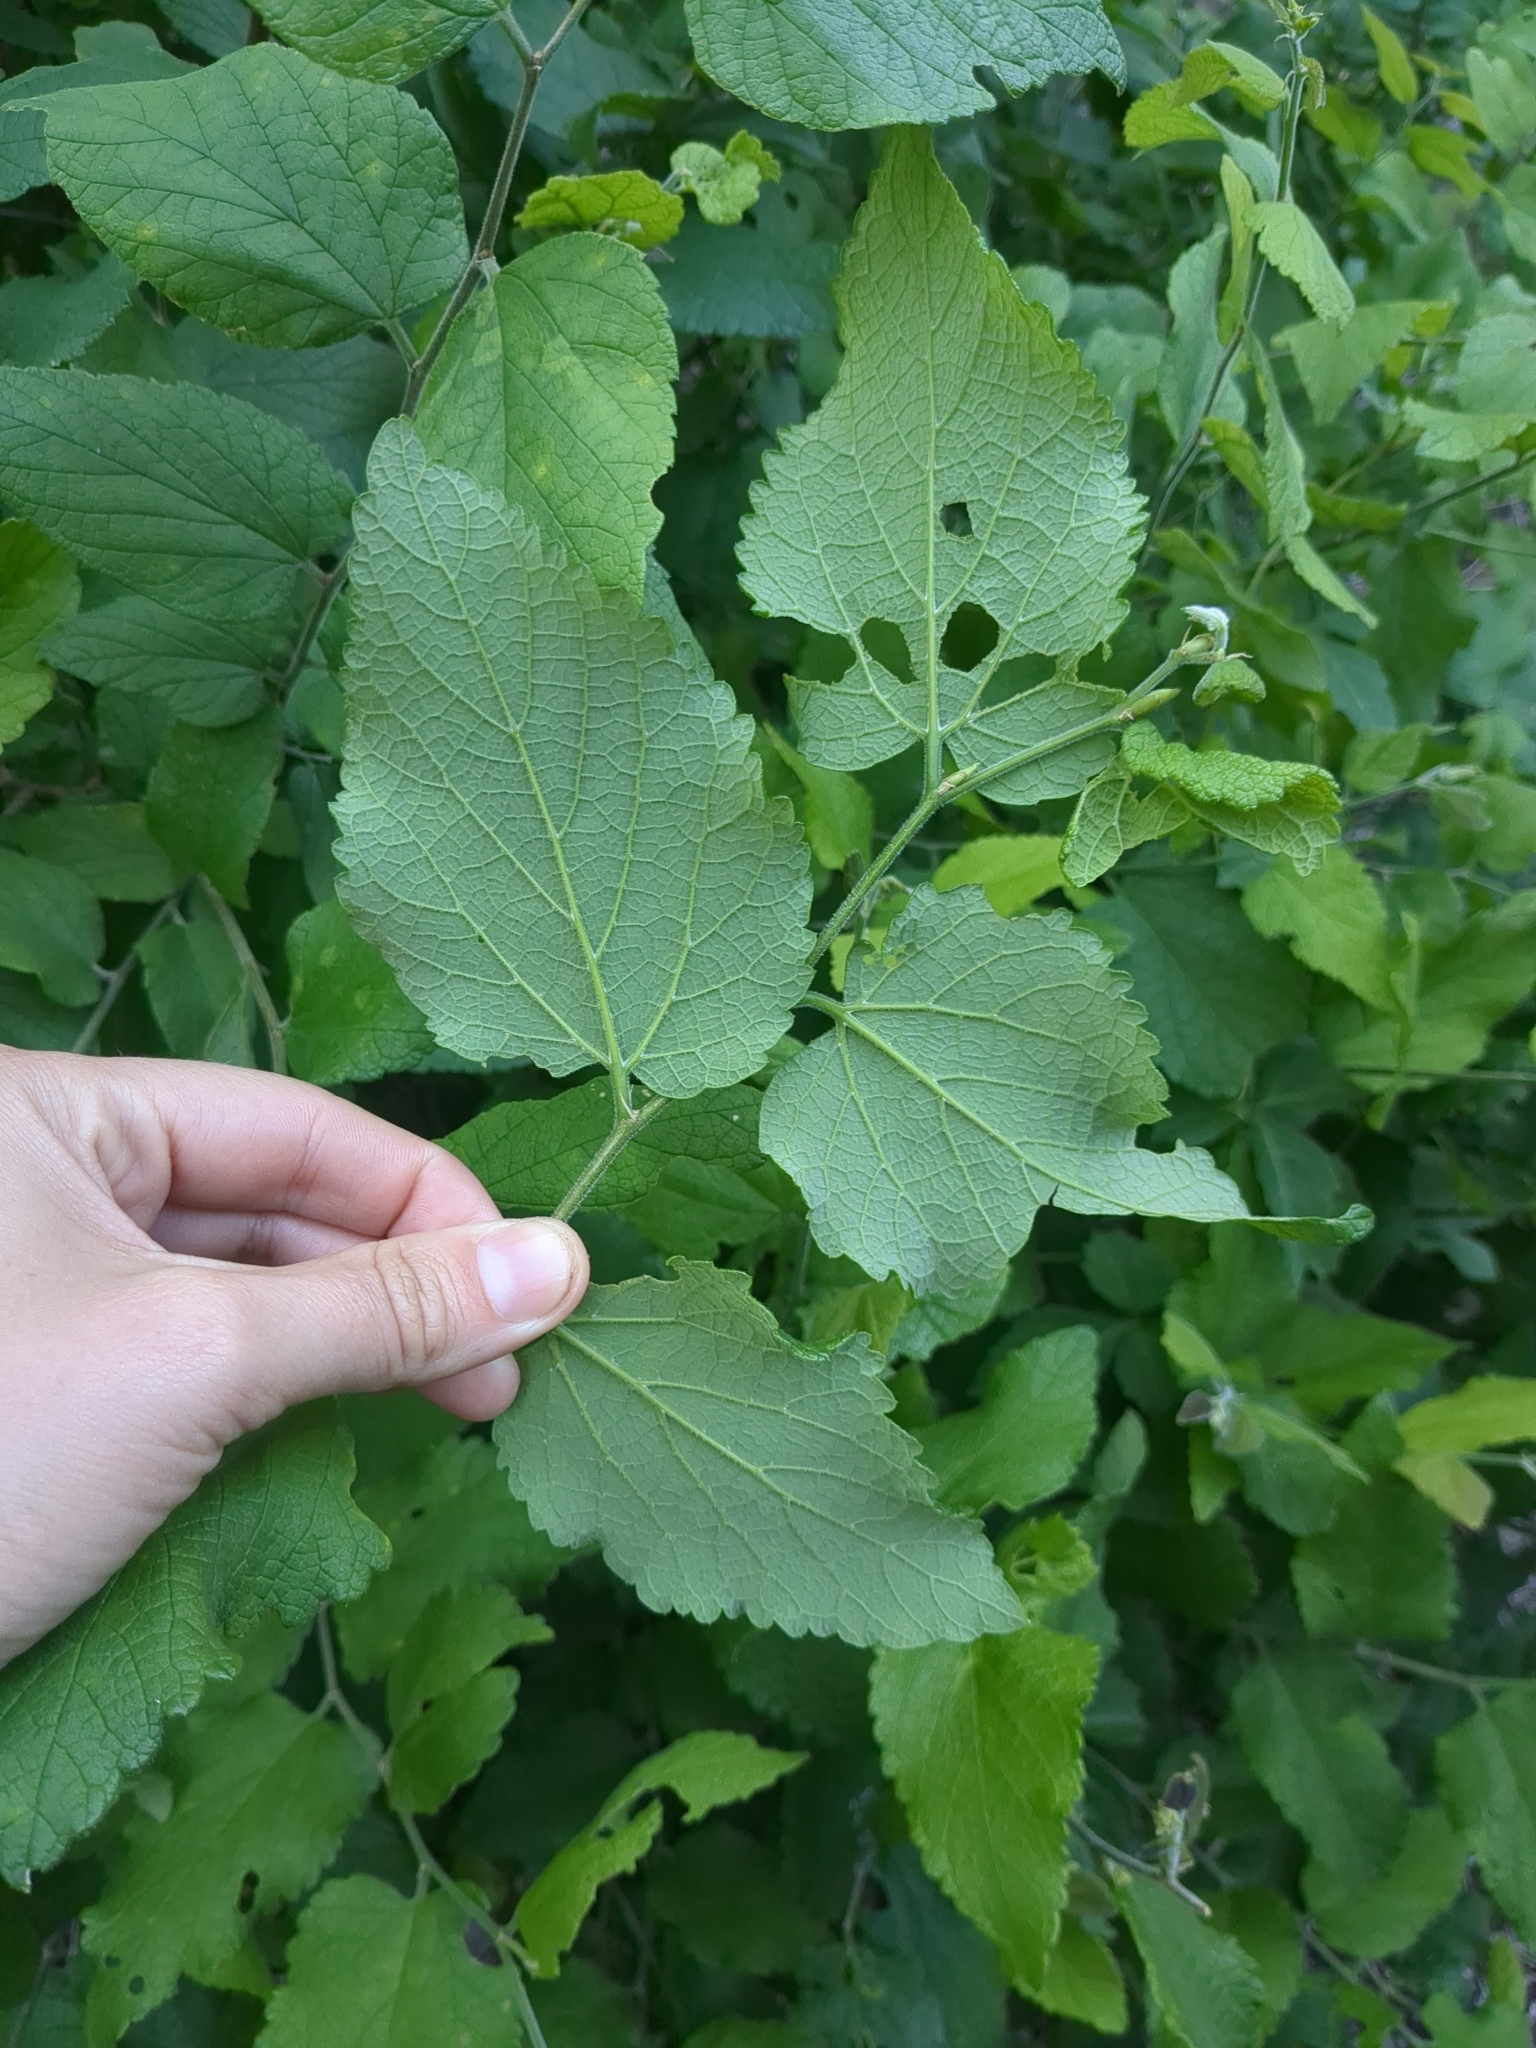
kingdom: Plantae
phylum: Tracheophyta
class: Magnoliopsida
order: Rosales
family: Cannabaceae
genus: Celtis
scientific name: Celtis reticulata
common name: Netleaf hackberry
